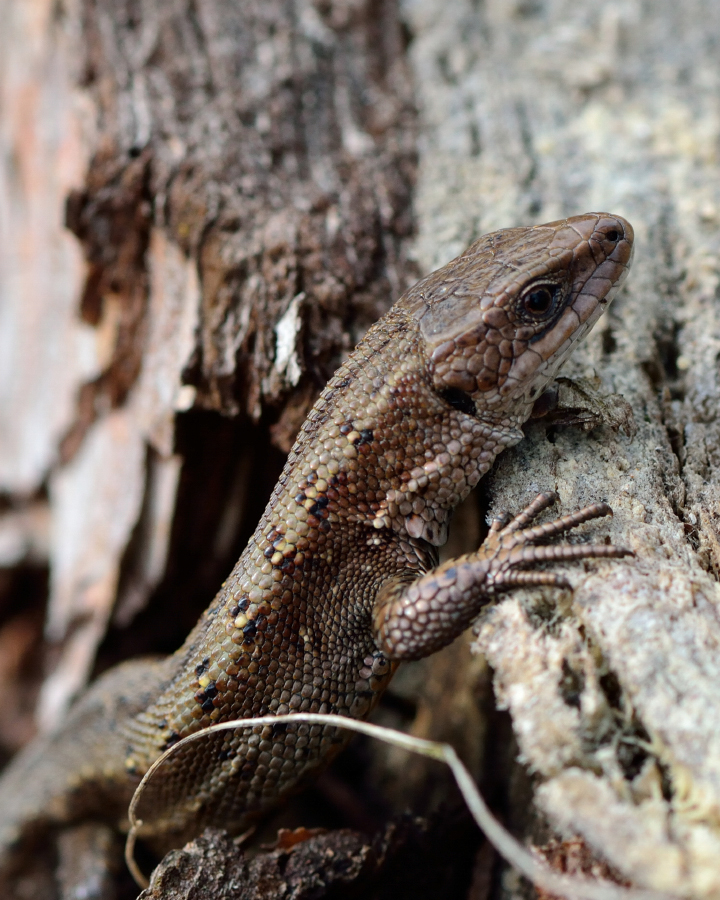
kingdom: Animalia
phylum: Chordata
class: Squamata
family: Lacertidae
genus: Zootoca
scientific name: Zootoca vivipara
